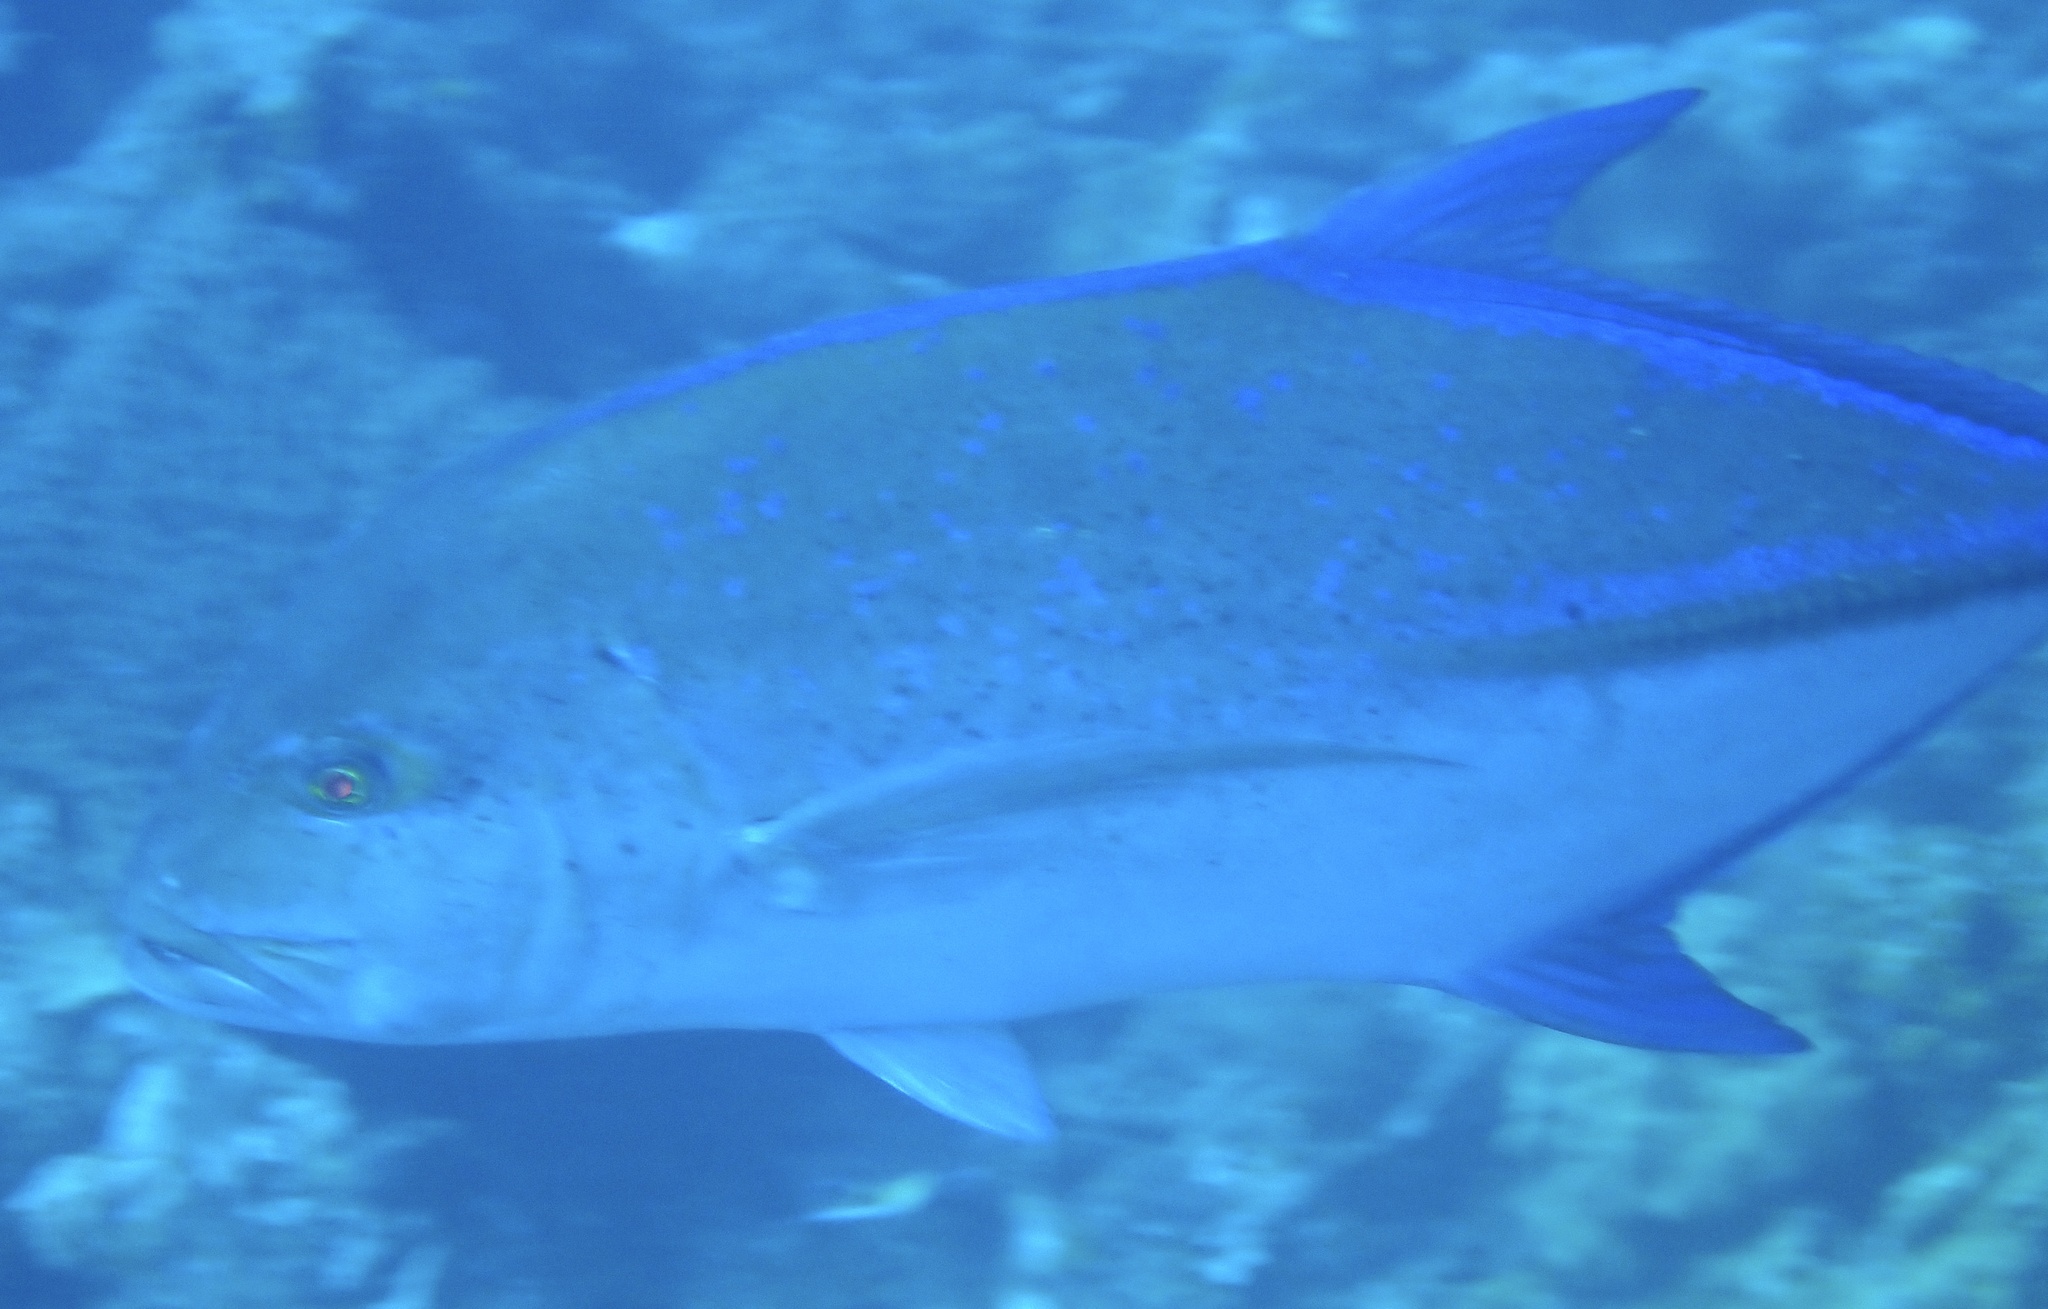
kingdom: Animalia
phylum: Chordata
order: Perciformes
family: Carangidae
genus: Caranx
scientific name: Caranx melampygus
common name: Bluefin trevally
